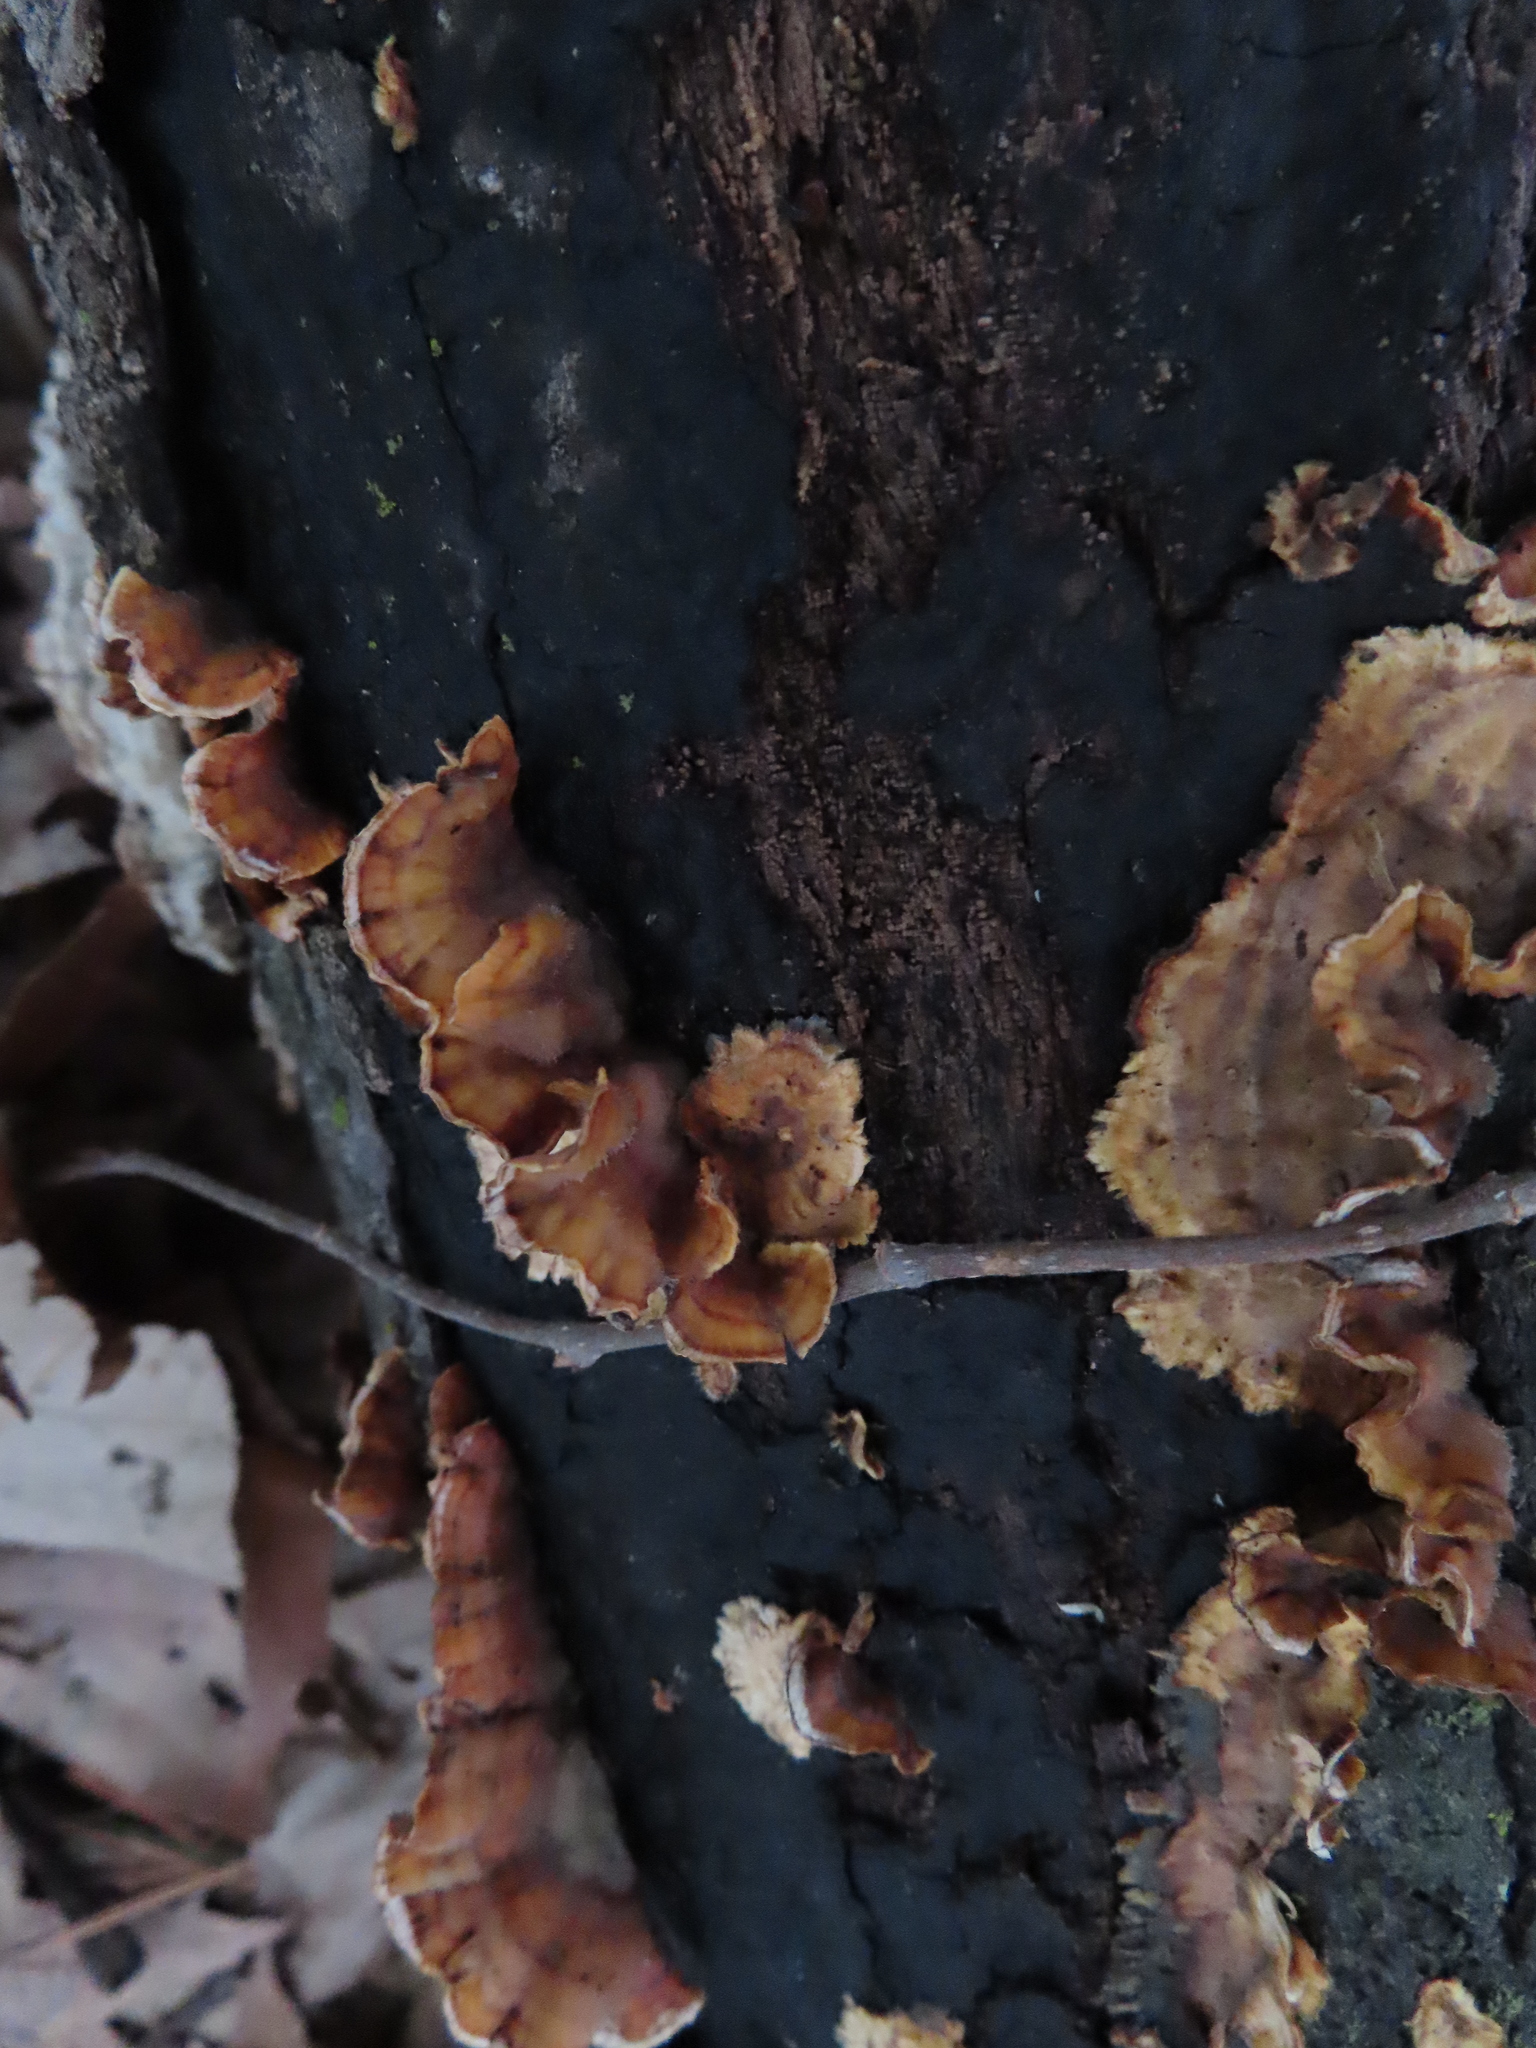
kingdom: Fungi
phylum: Basidiomycota
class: Agaricomycetes
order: Russulales
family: Stereaceae
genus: Stereum
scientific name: Stereum complicatum
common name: Crowded parchment
